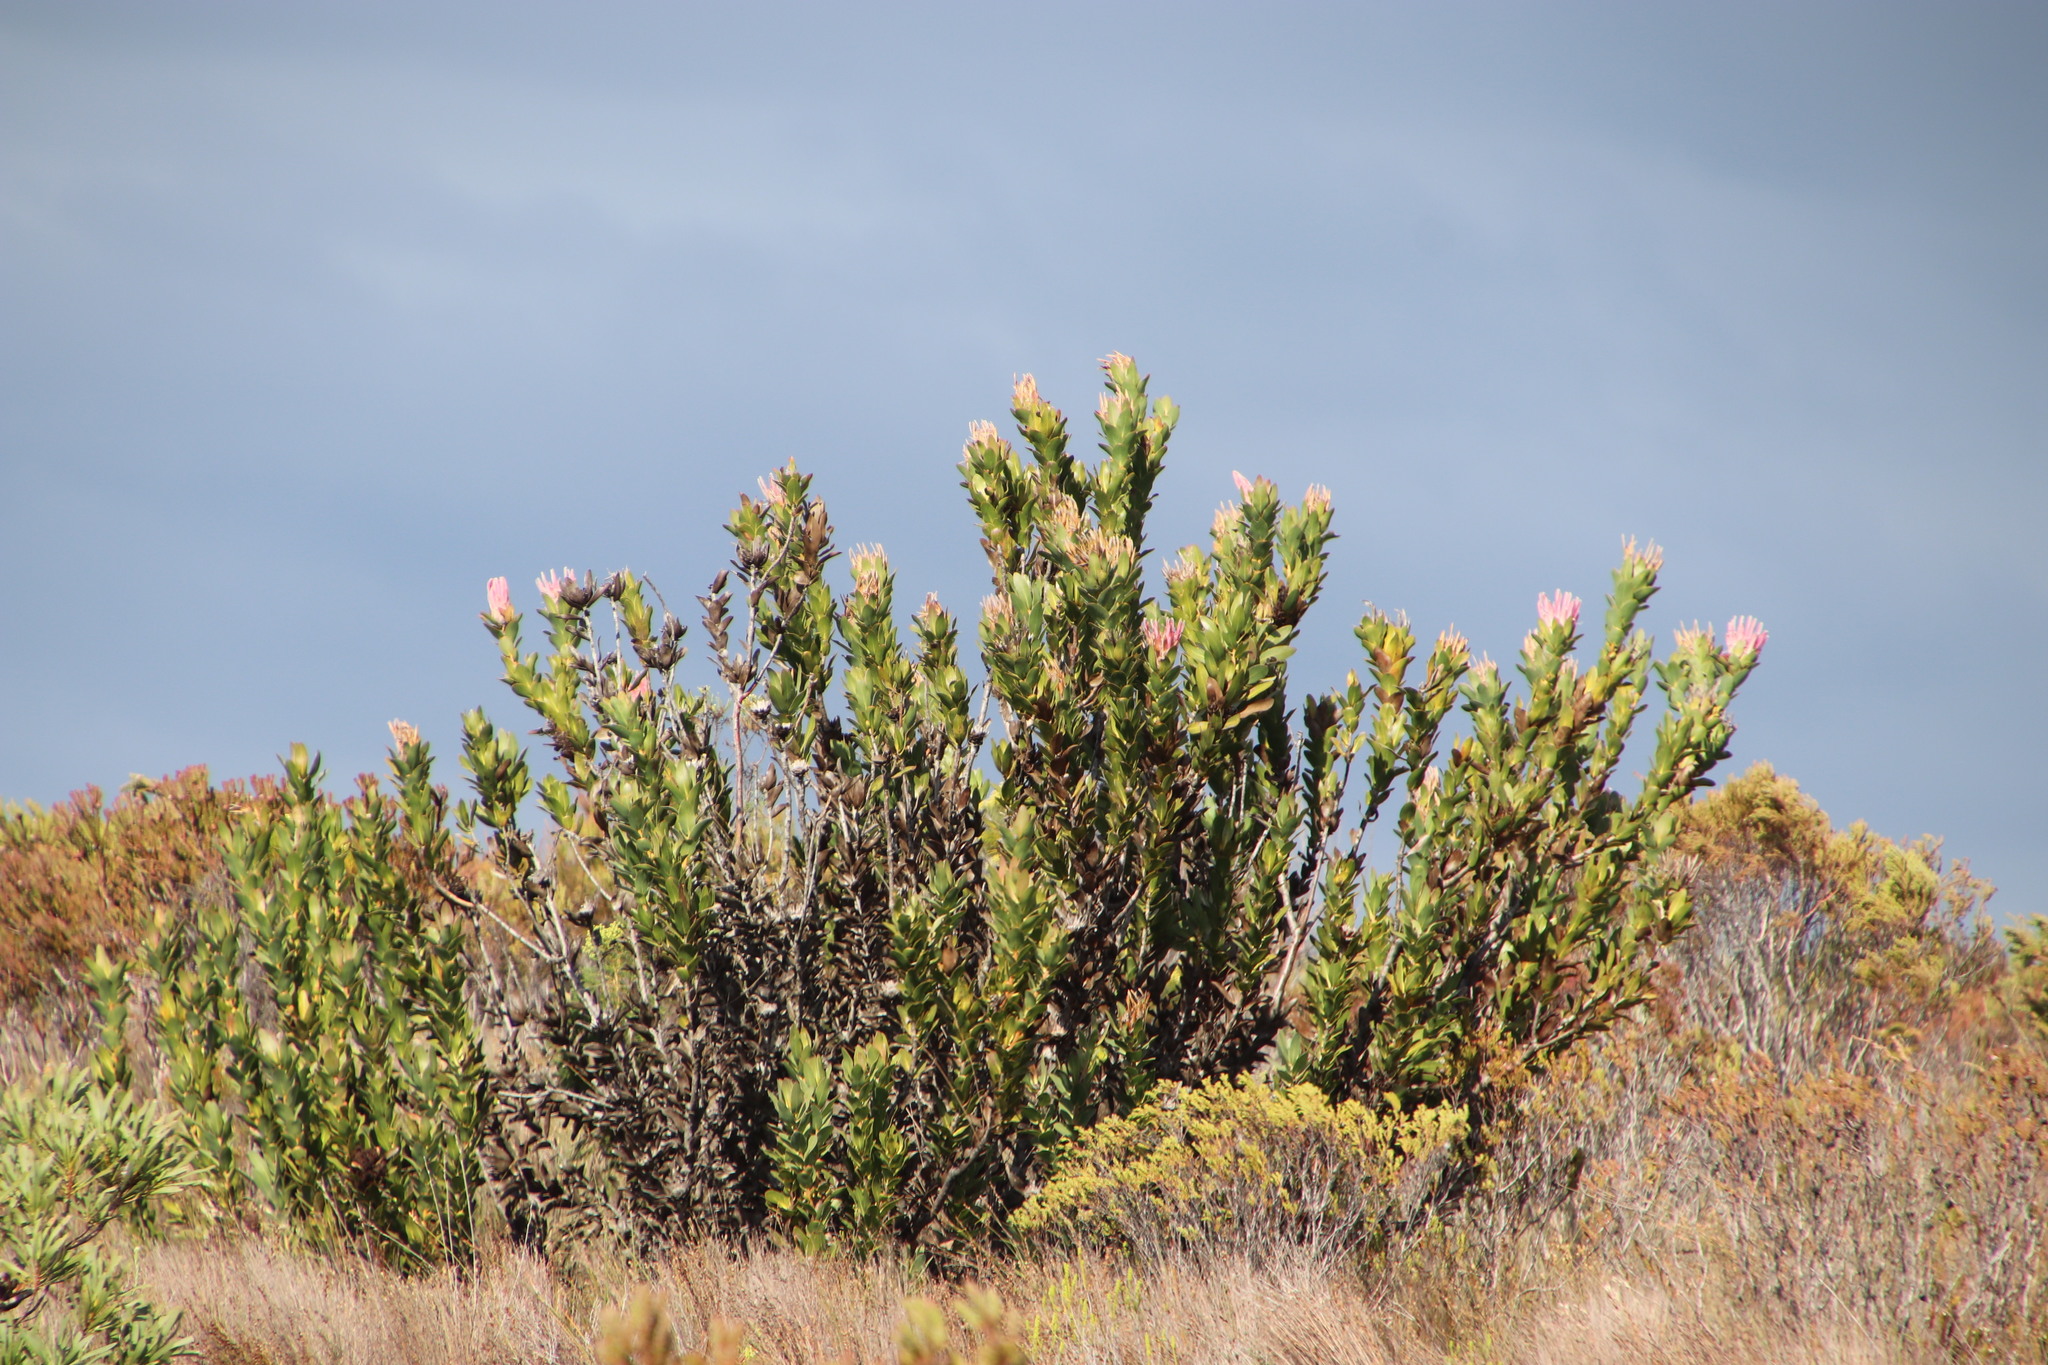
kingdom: Plantae
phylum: Tracheophyta
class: Magnoliopsida
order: Proteales
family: Proteaceae
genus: Protea
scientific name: Protea compacta
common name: Bot river protea
